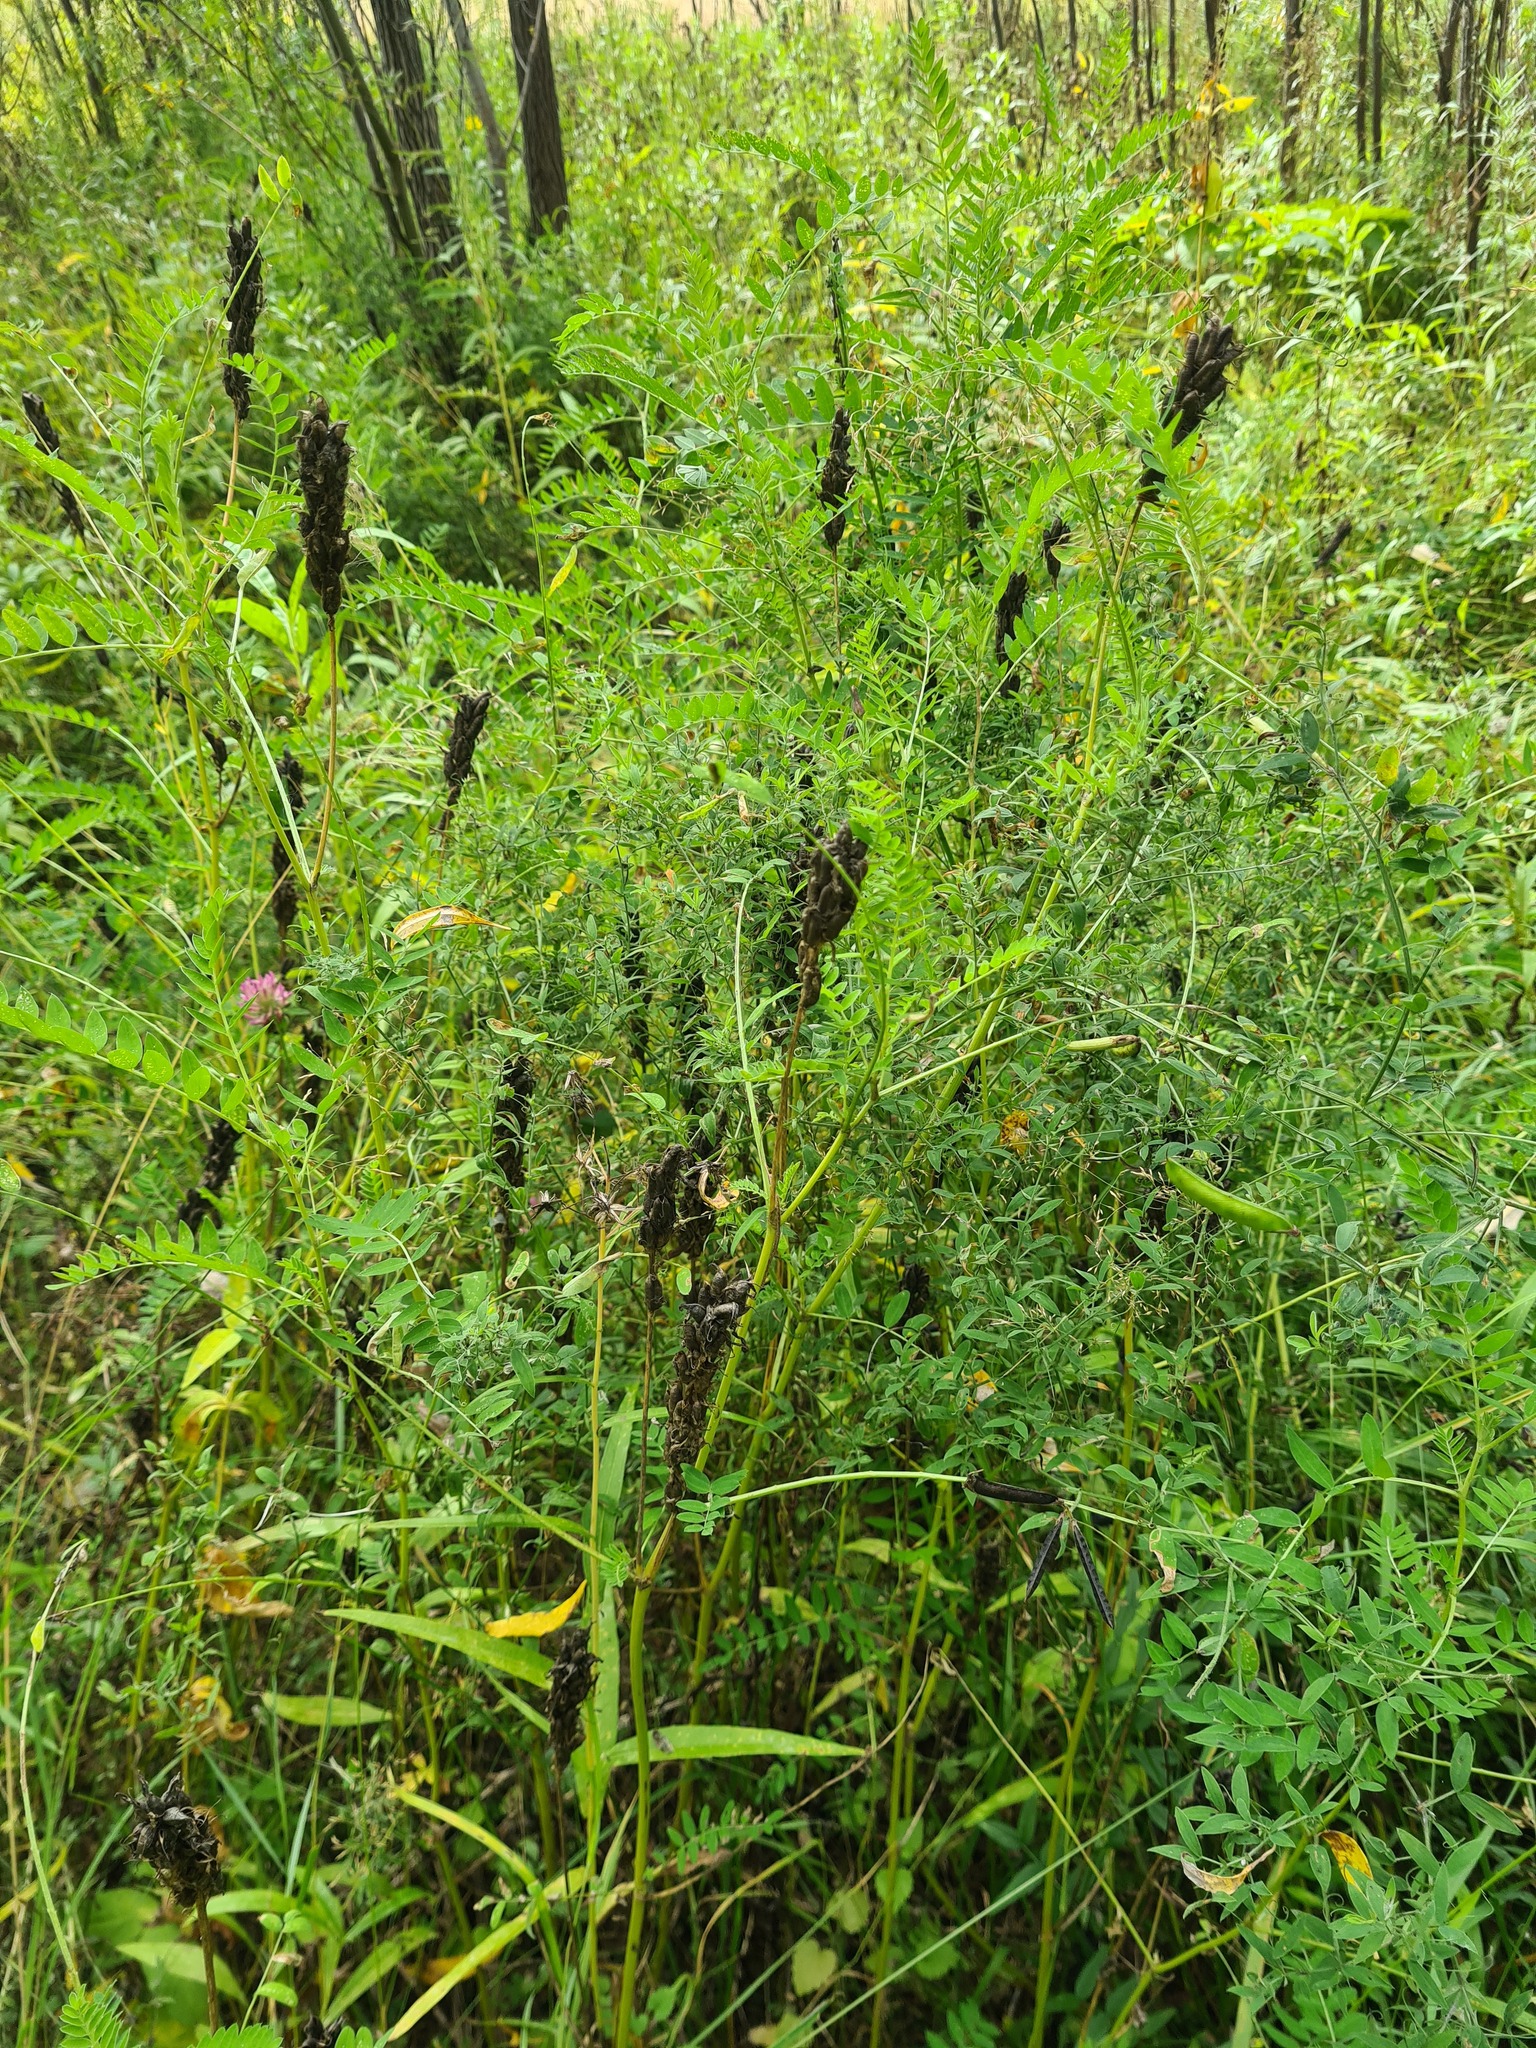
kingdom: Plantae
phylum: Tracheophyta
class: Magnoliopsida
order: Fabales
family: Fabaceae
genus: Astragalus
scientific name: Astragalus uliginosus
